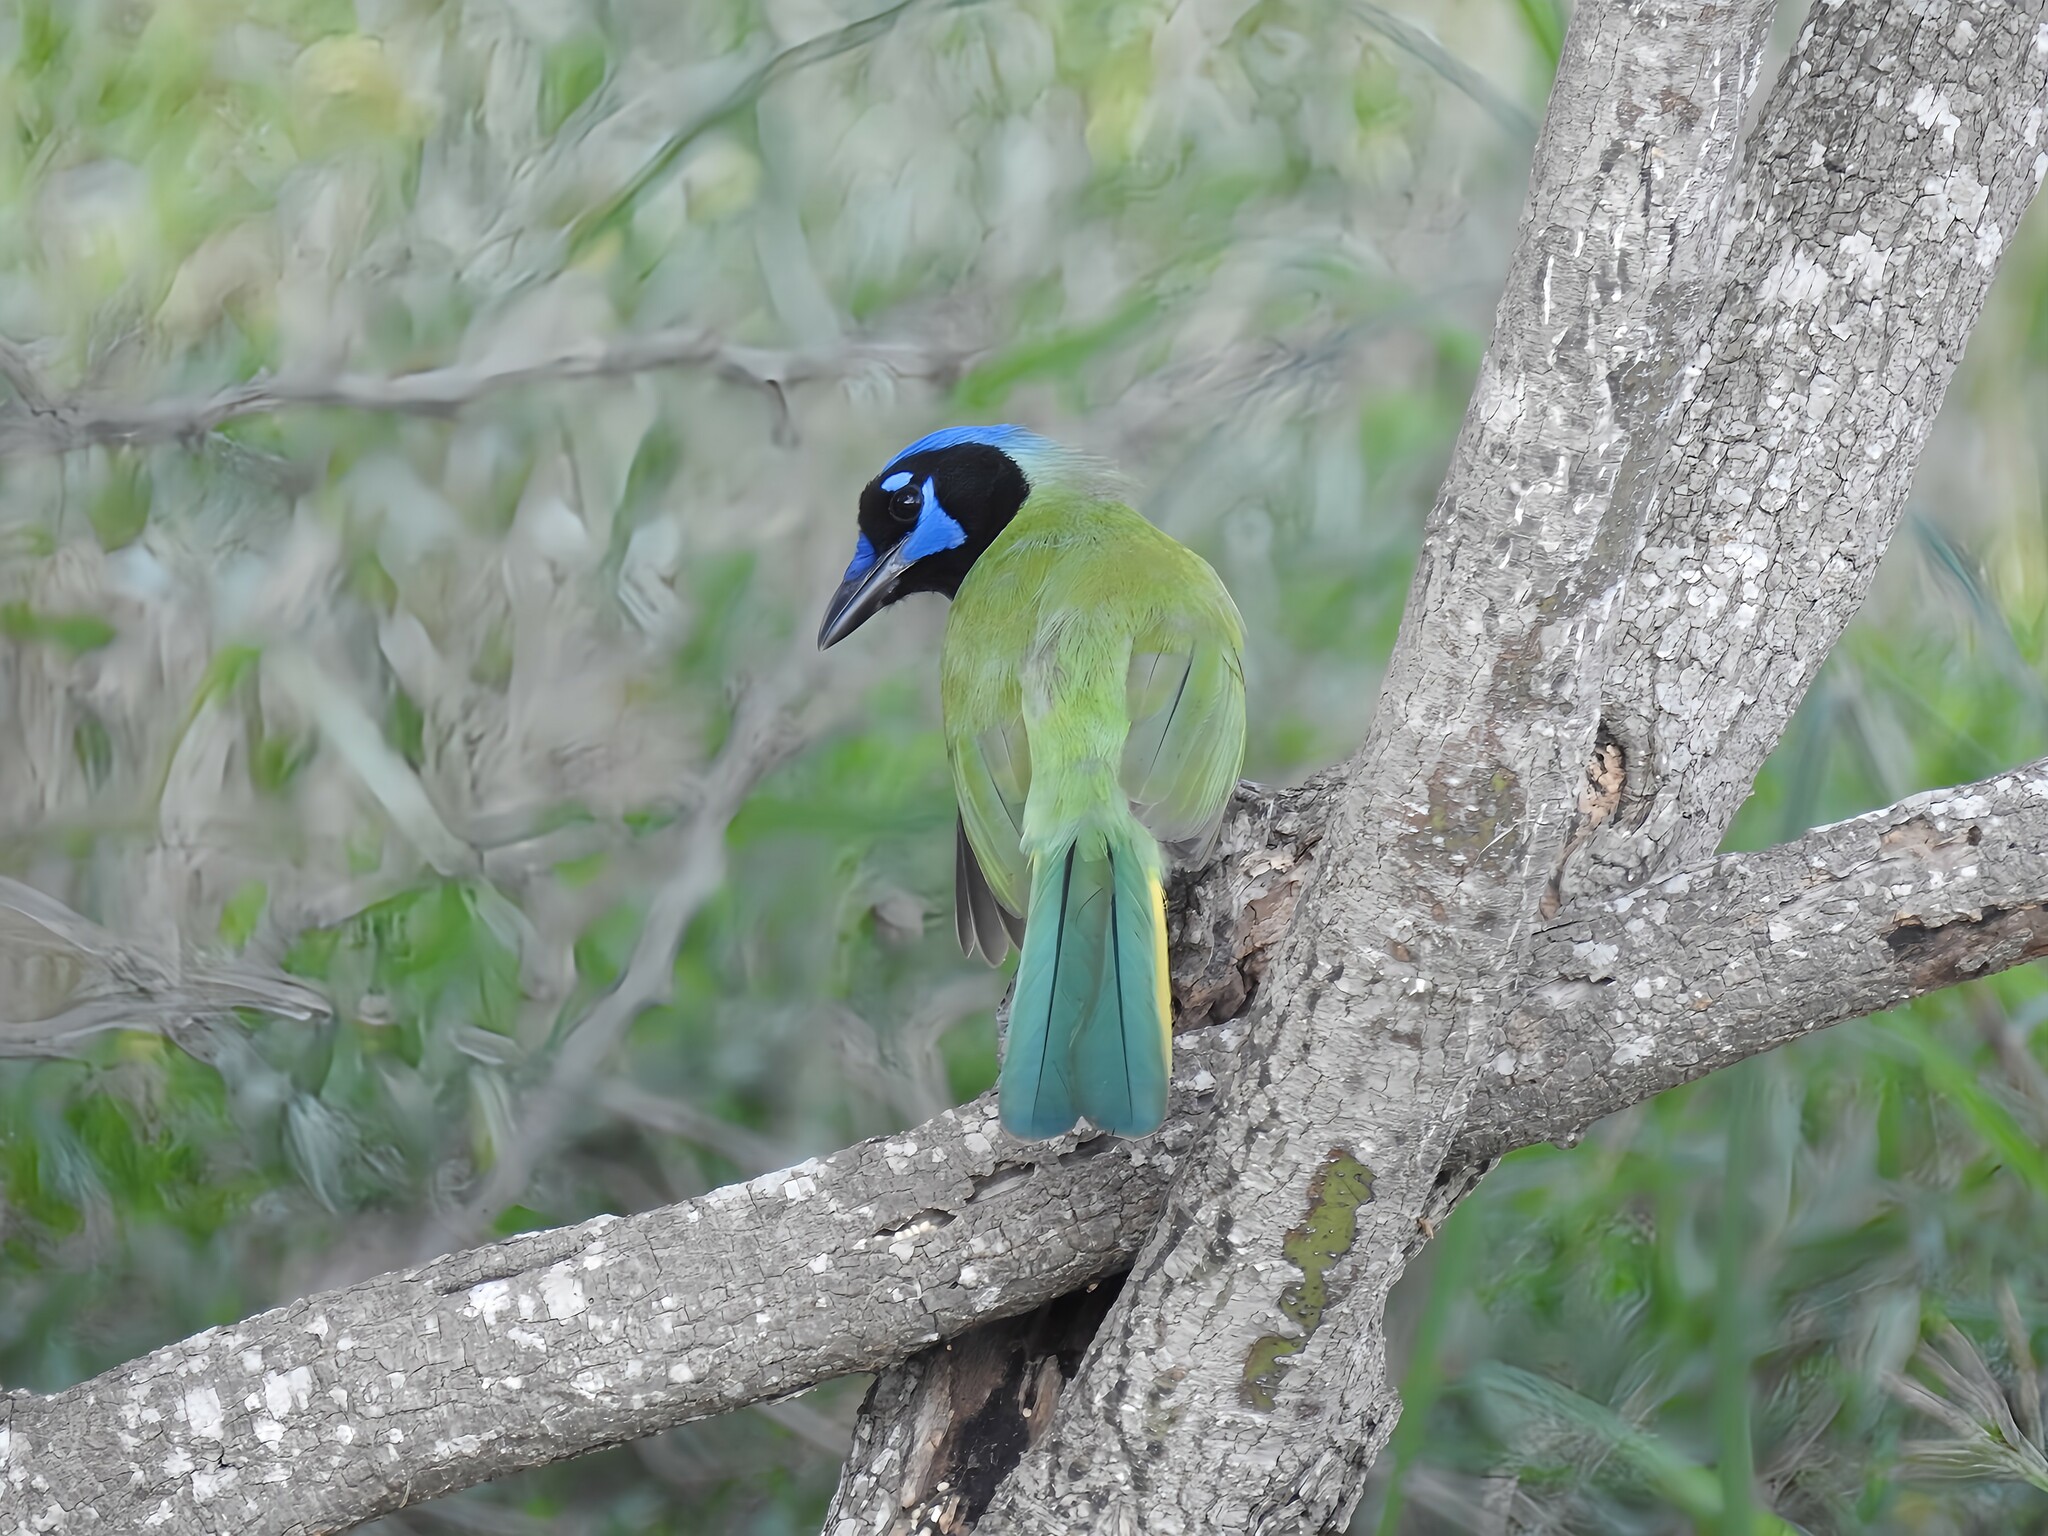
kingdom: Animalia
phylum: Chordata
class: Aves
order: Passeriformes
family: Corvidae
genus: Cyanocorax
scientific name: Cyanocorax yncas
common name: Green jay
